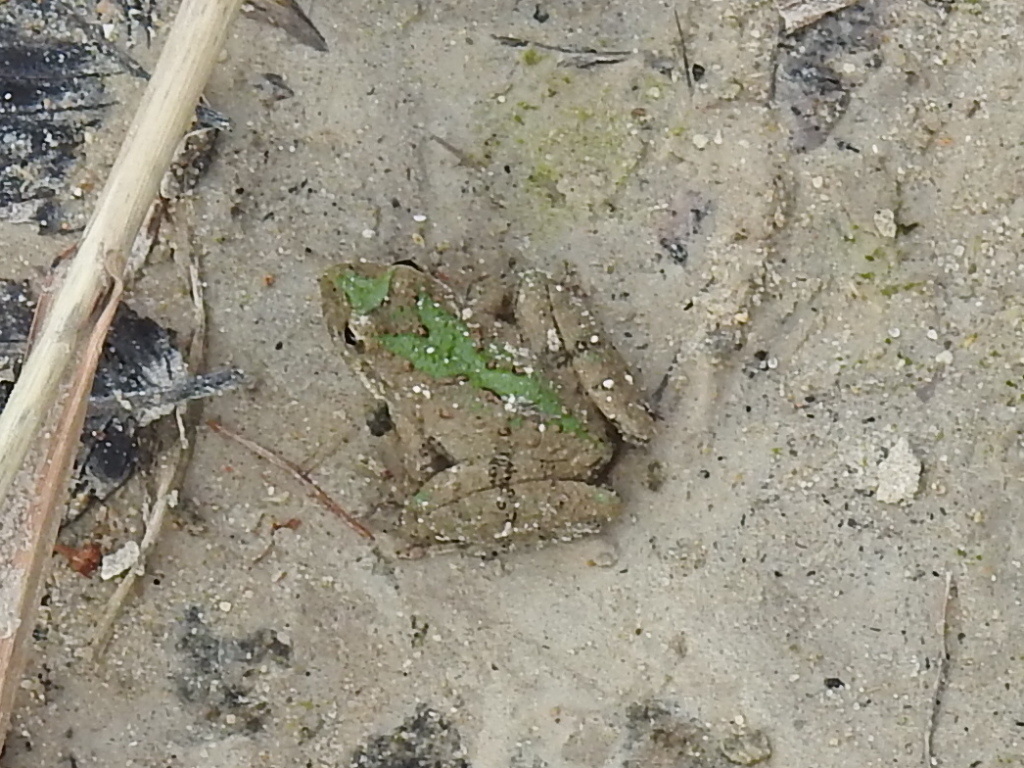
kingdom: Animalia
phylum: Chordata
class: Amphibia
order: Anura
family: Hylidae
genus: Acris
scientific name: Acris blanchardi
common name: Blanchard's cricket frog
